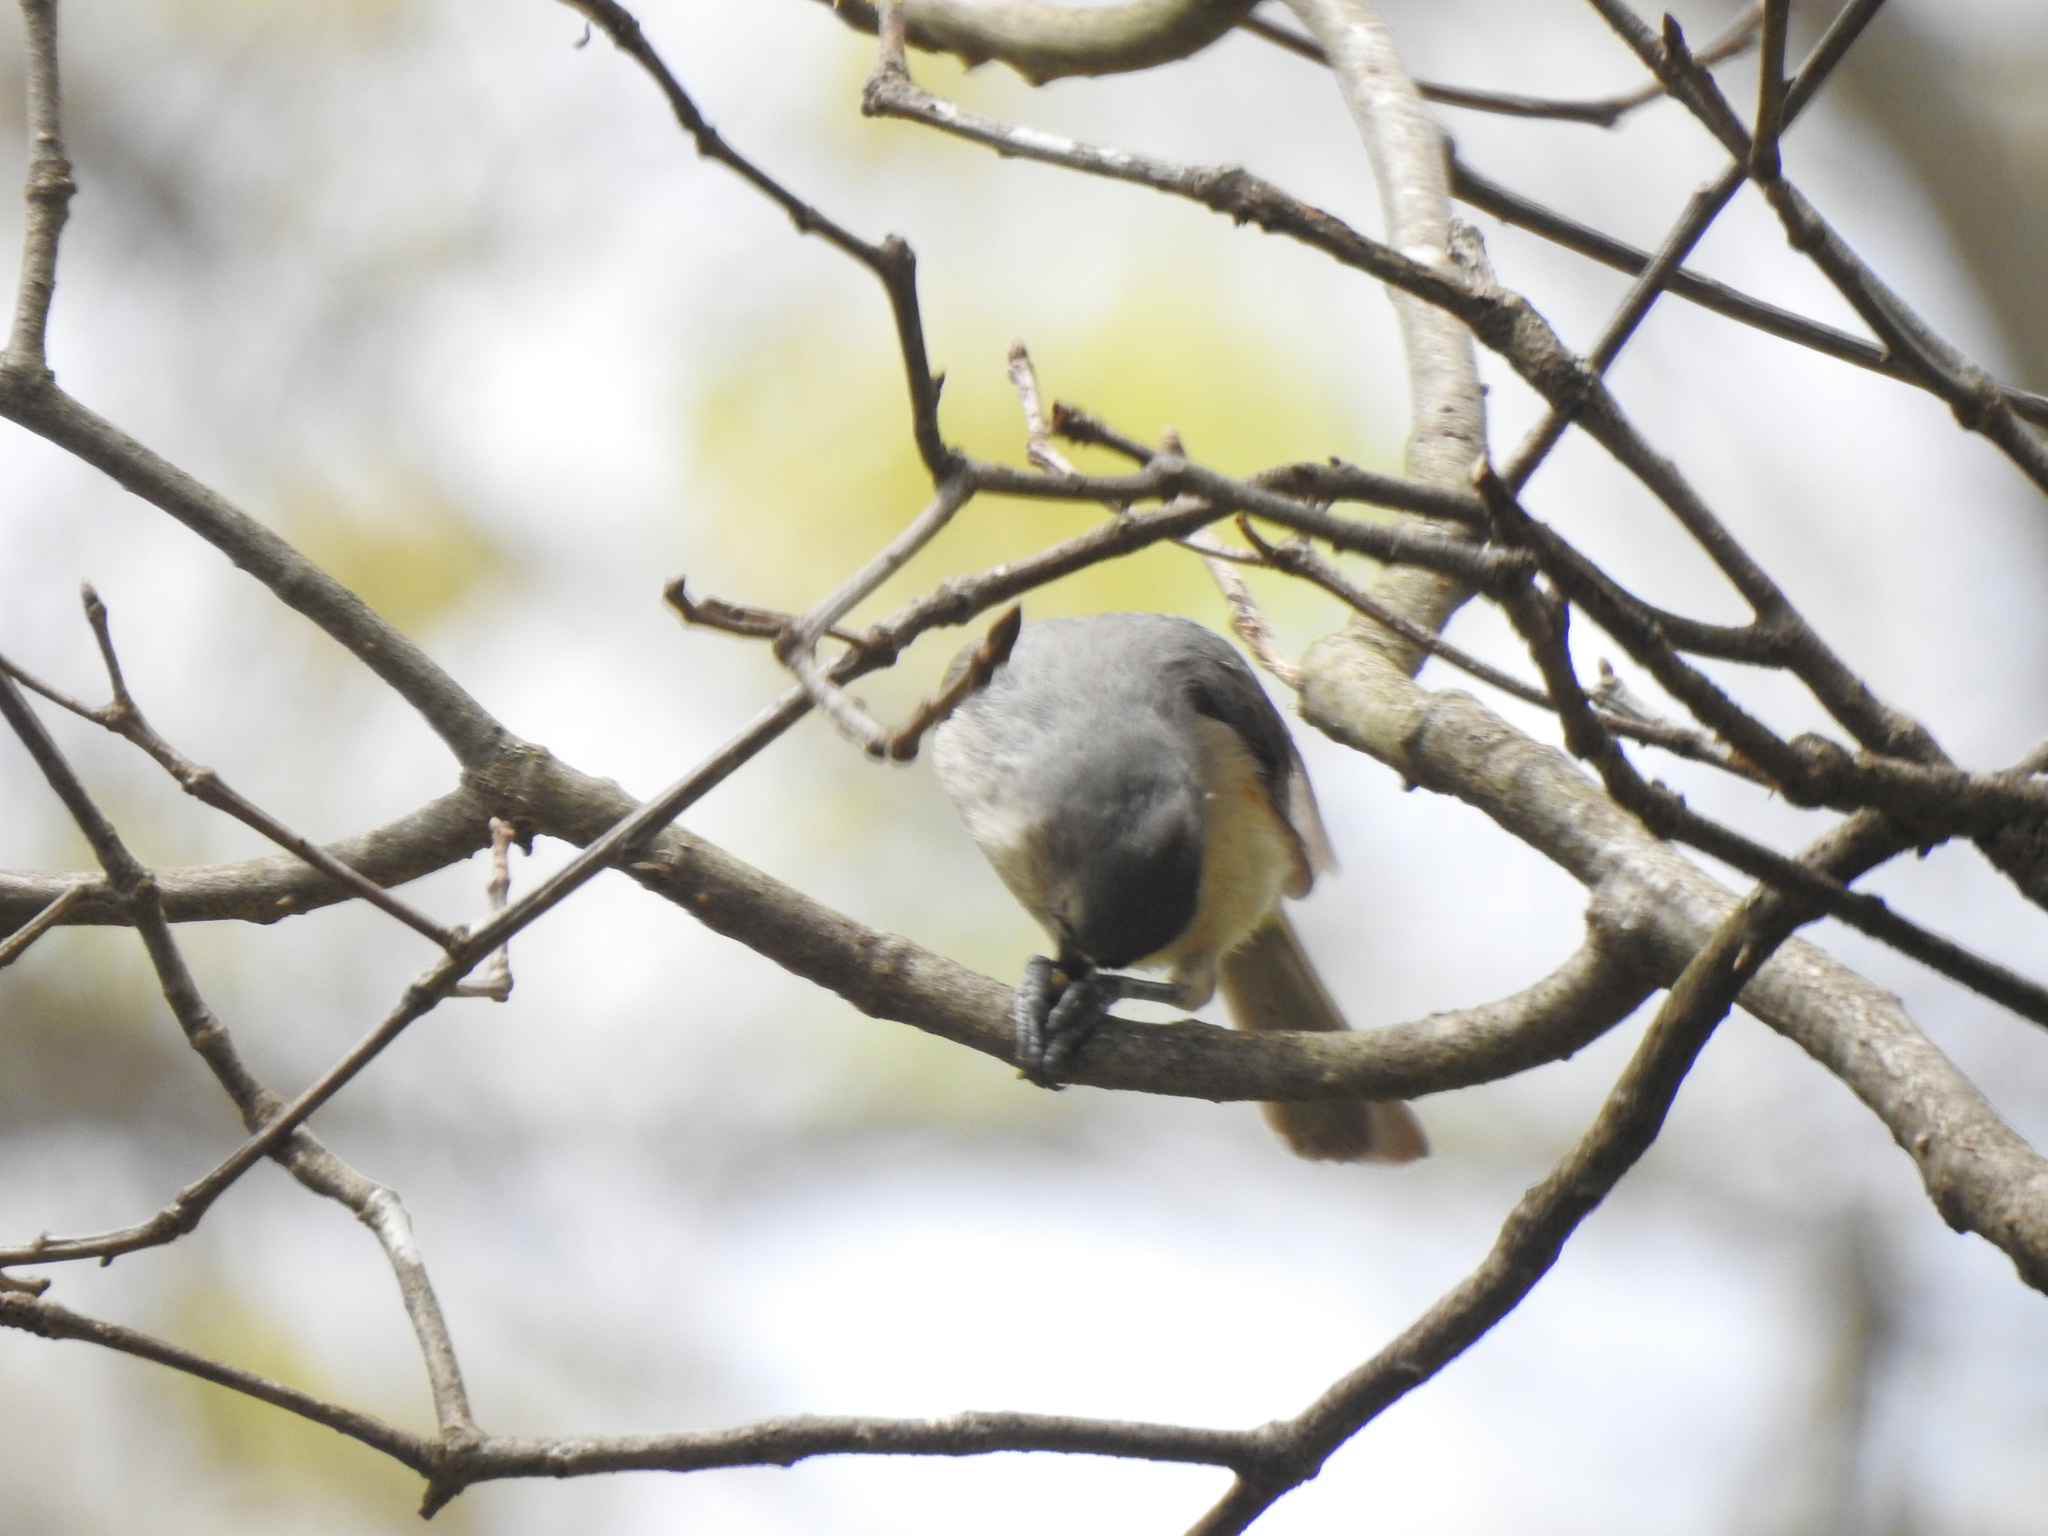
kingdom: Animalia
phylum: Chordata
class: Aves
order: Passeriformes
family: Paridae
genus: Baeolophus
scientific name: Baeolophus bicolor
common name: Tufted titmouse
